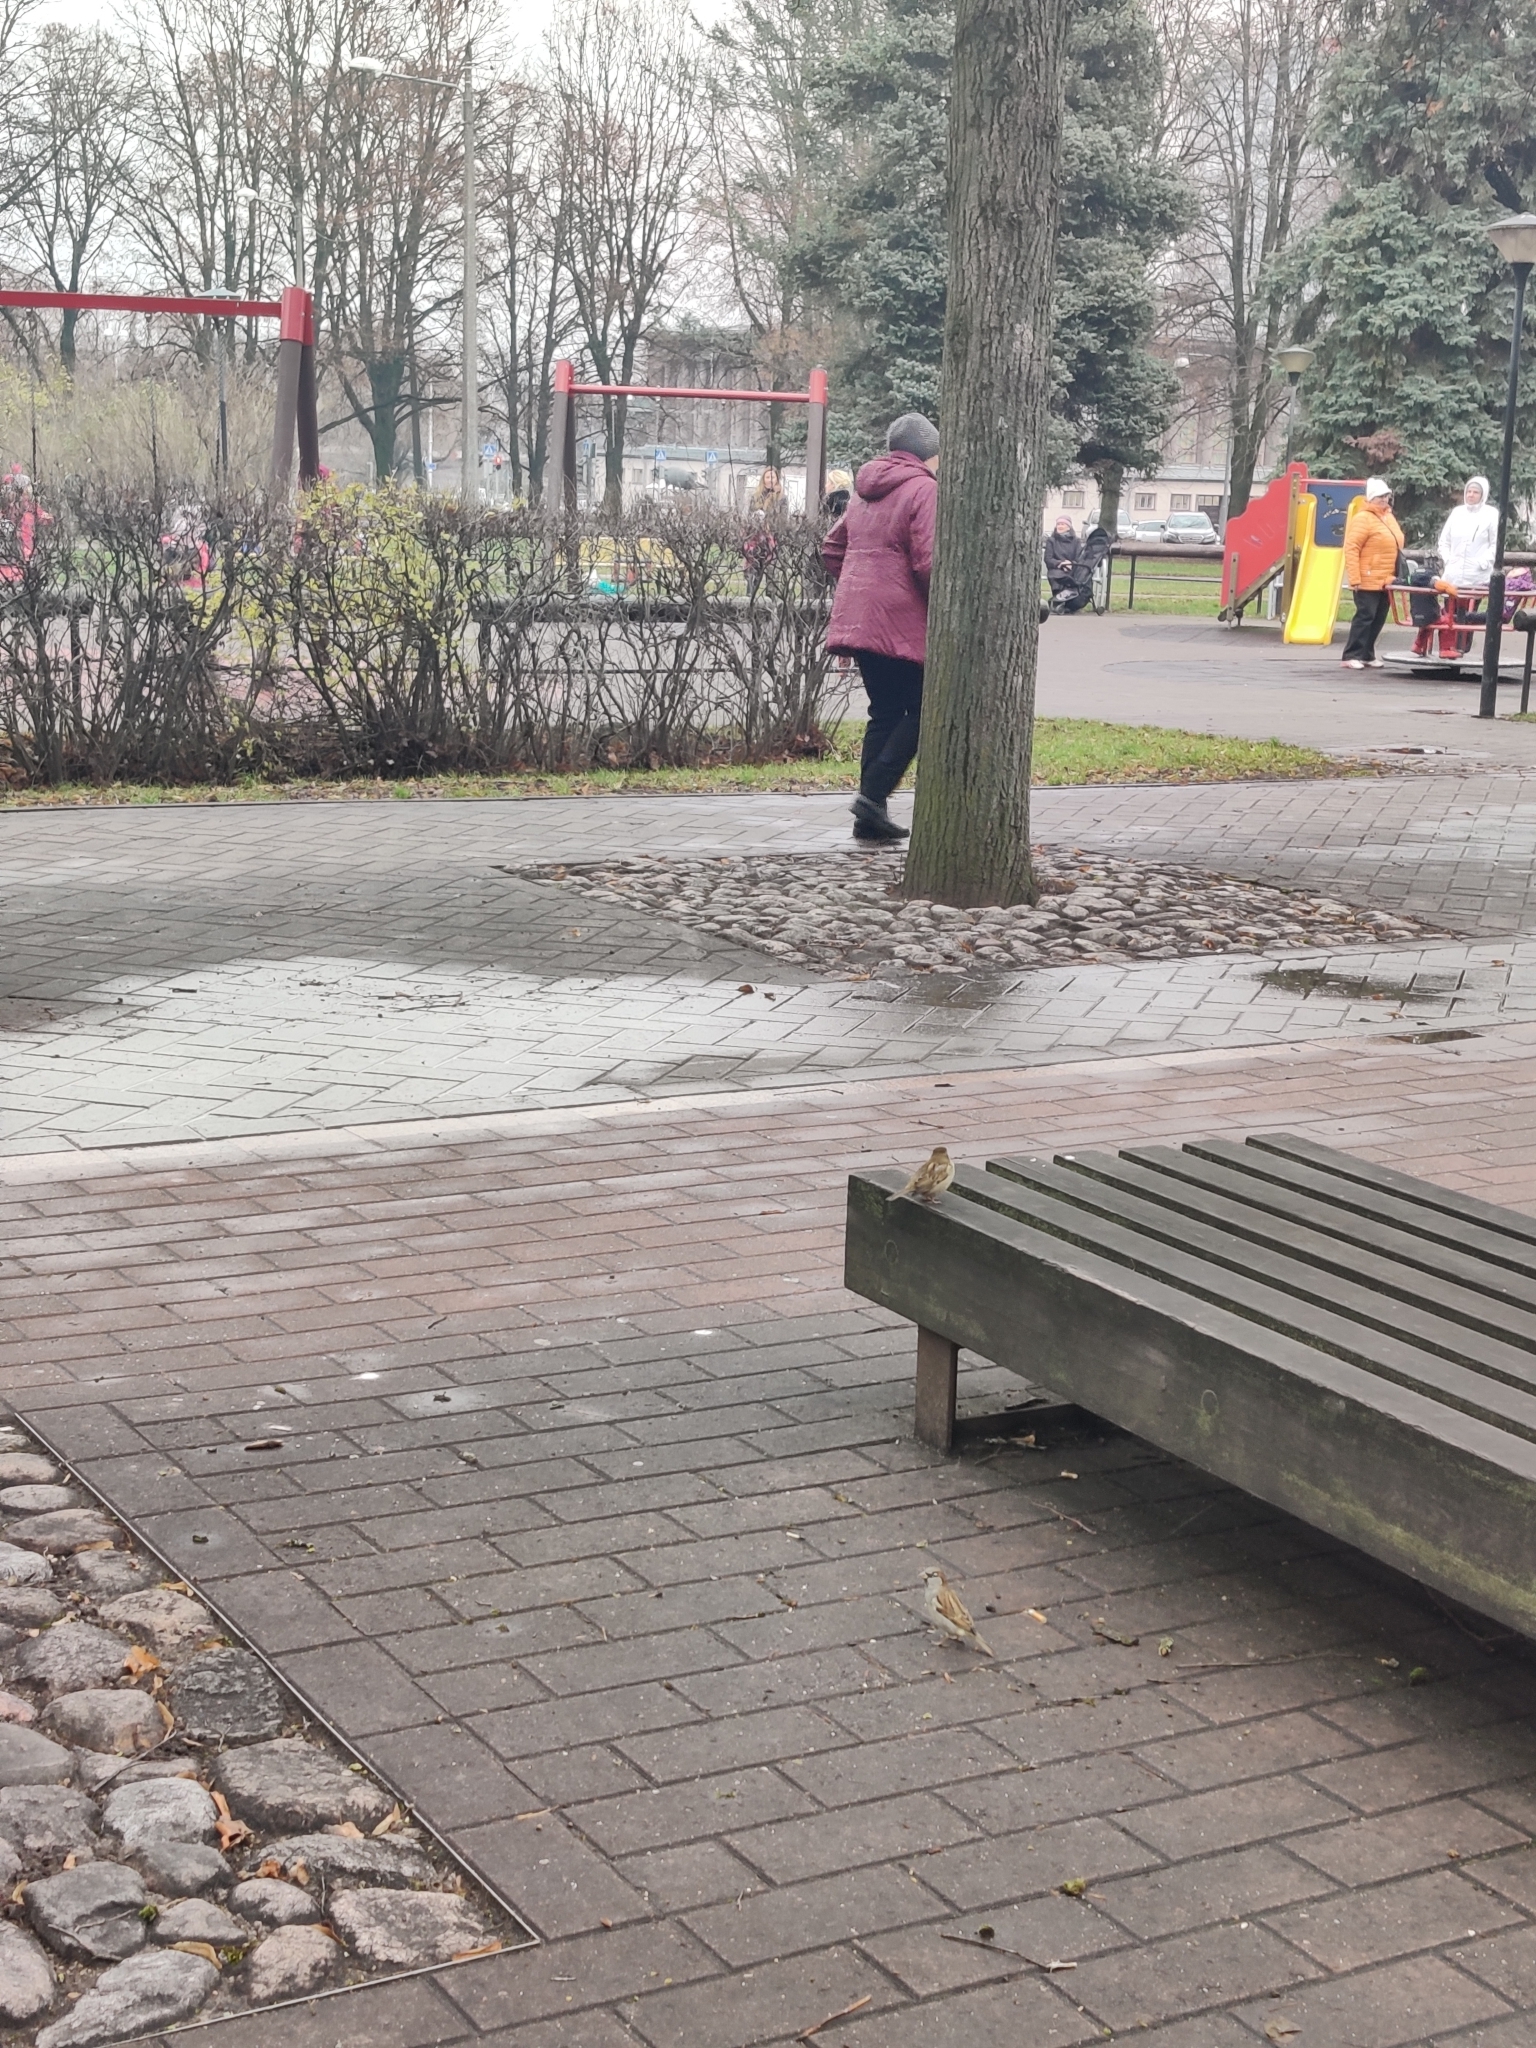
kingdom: Animalia
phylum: Chordata
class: Aves
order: Passeriformes
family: Passeridae
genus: Passer
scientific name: Passer domesticus
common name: House sparrow
